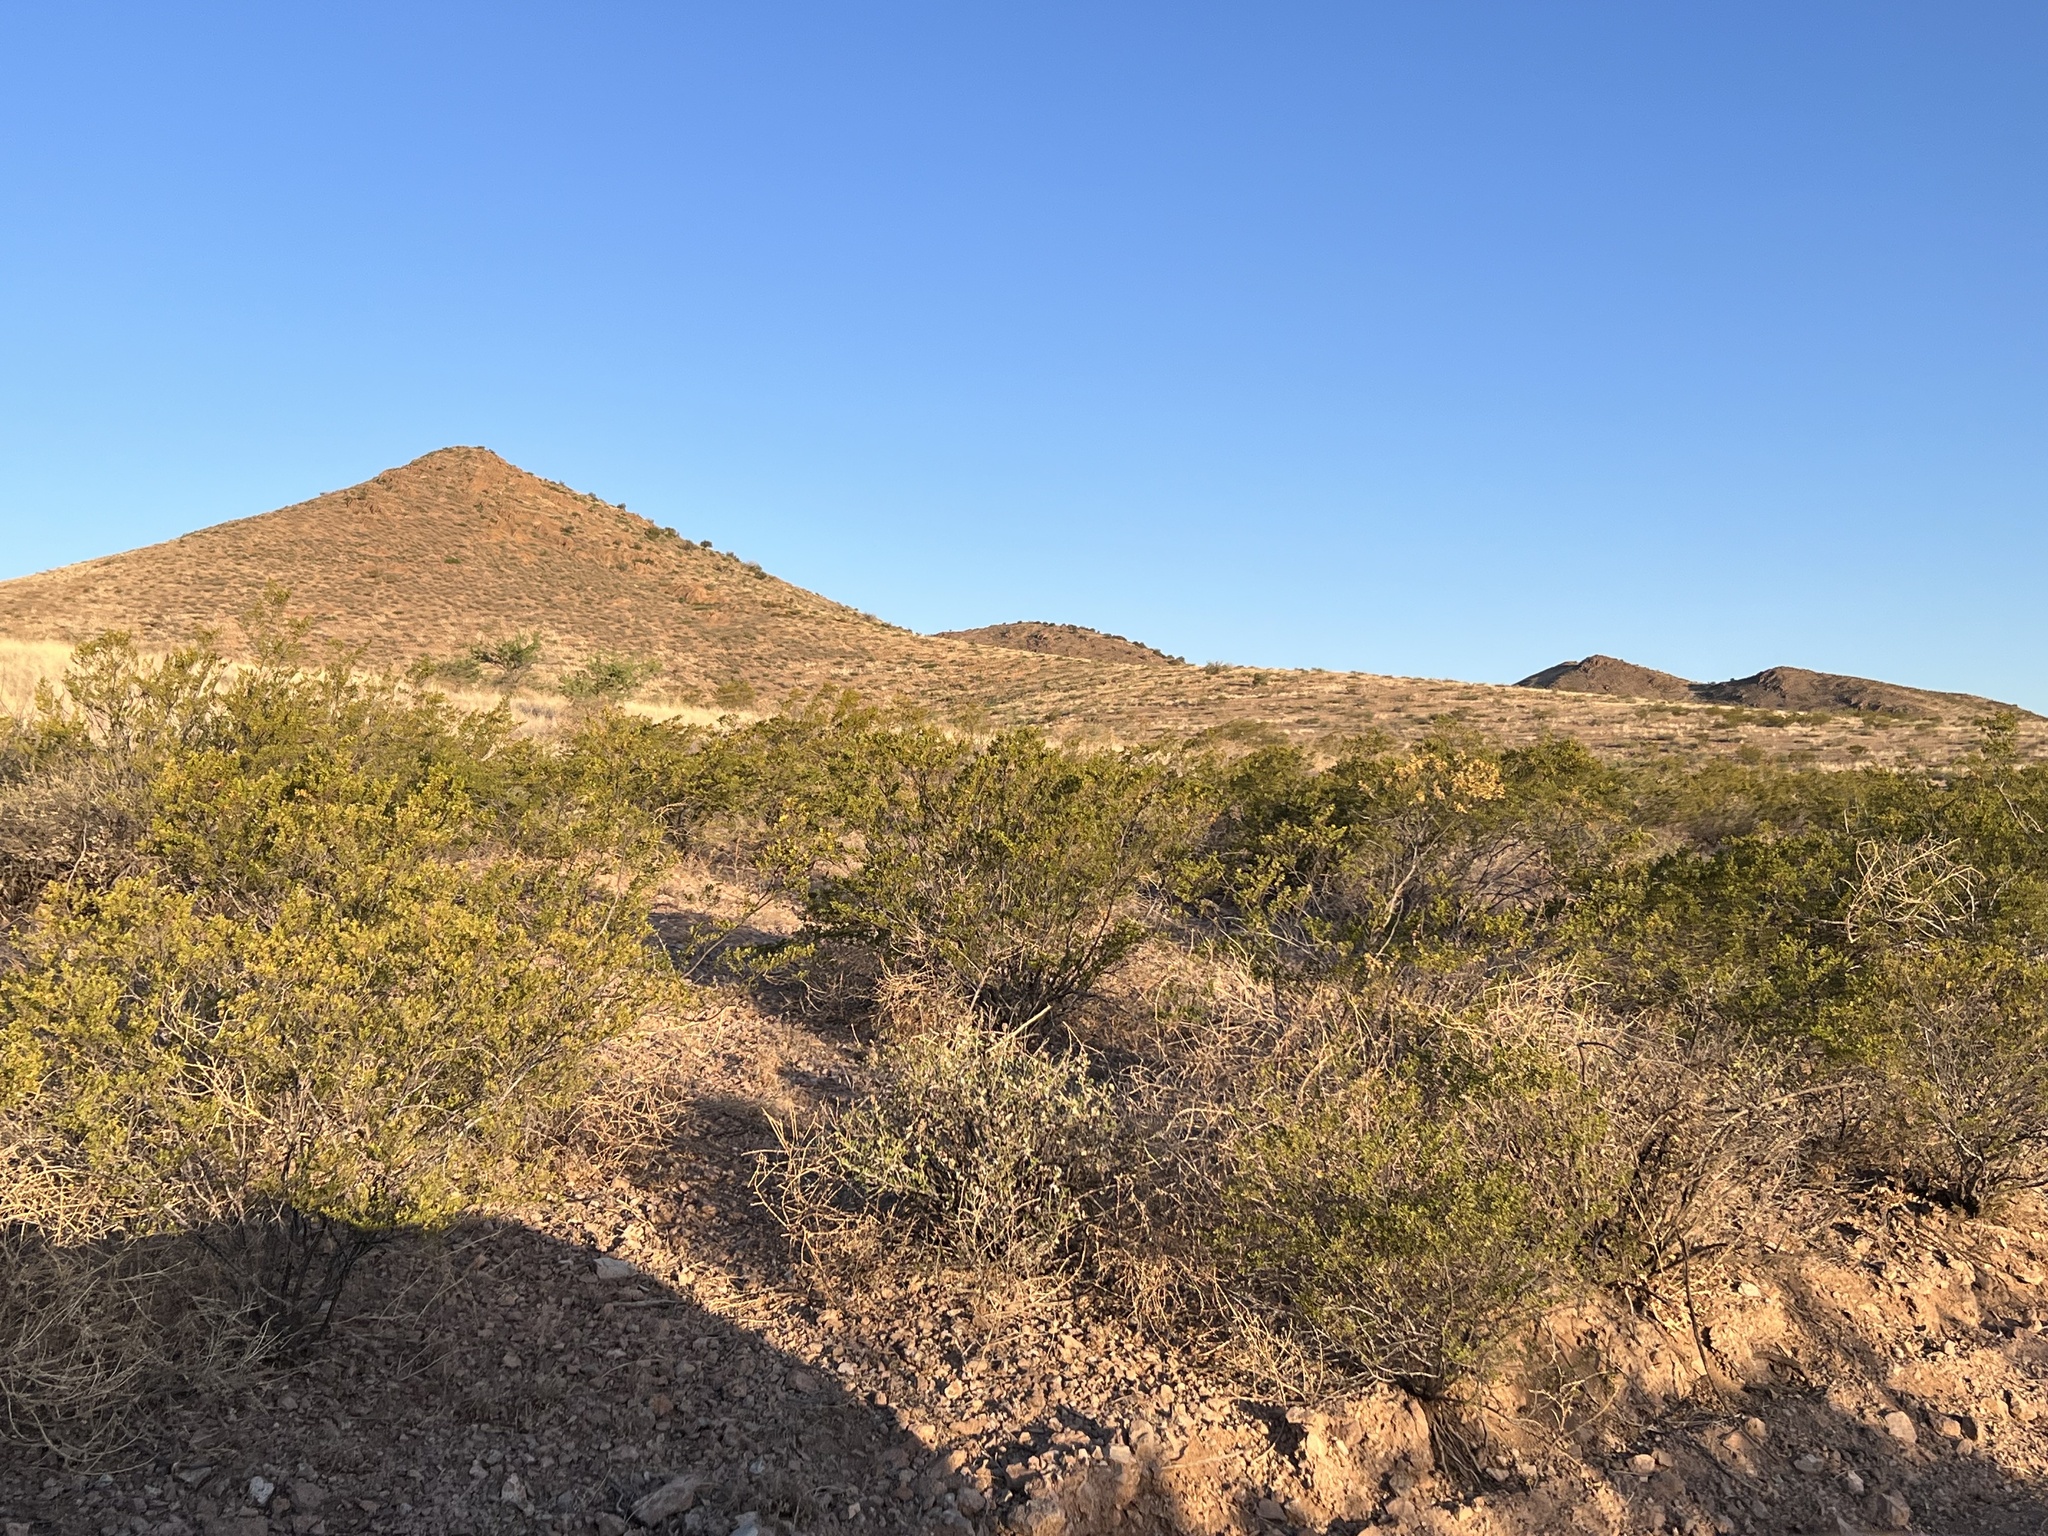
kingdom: Plantae
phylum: Tracheophyta
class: Magnoliopsida
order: Zygophyllales
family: Zygophyllaceae
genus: Larrea
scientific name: Larrea tridentata
